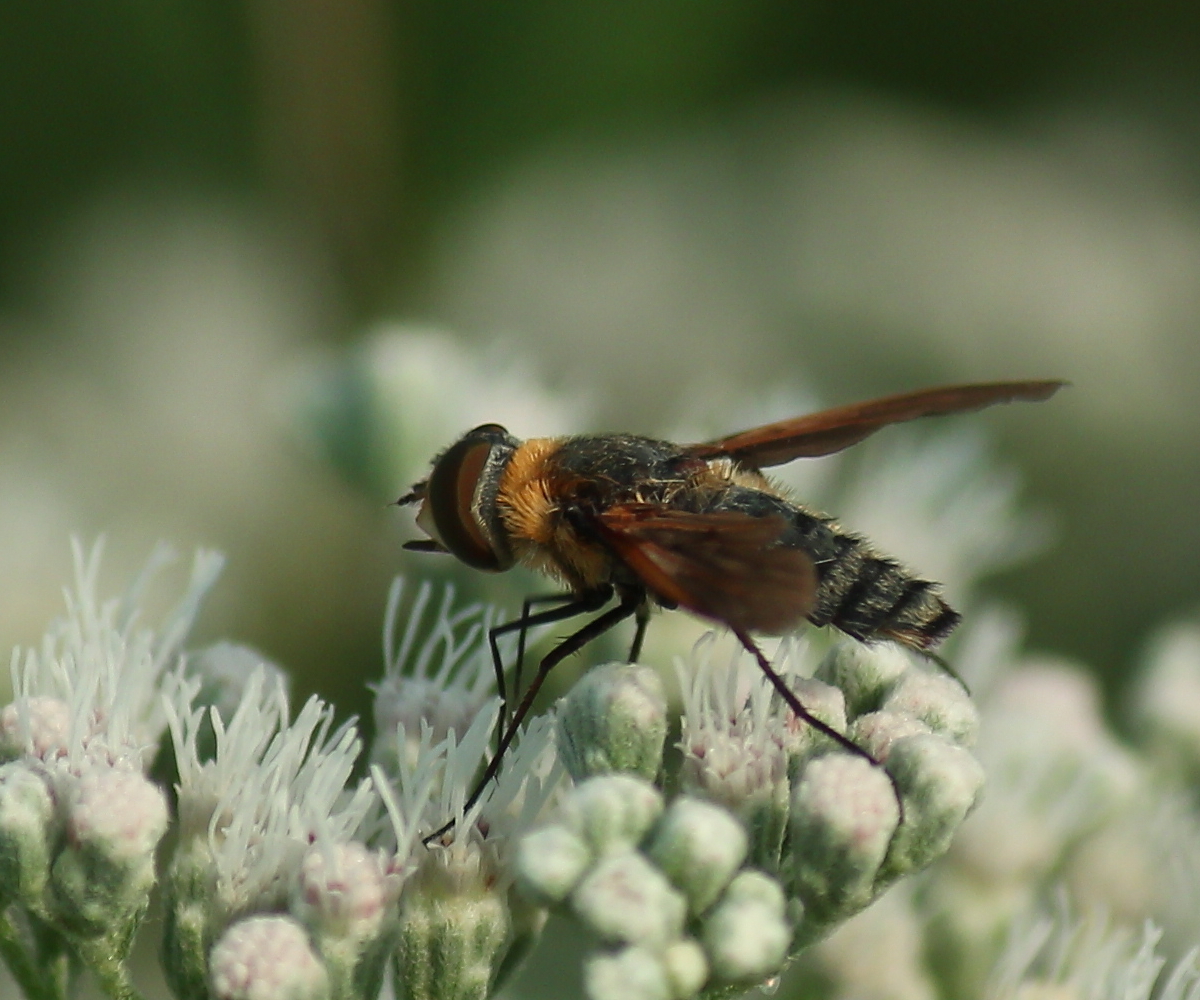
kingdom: Animalia
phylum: Arthropoda
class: Insecta
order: Diptera
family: Bombyliidae
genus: Poecilanthrax
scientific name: Poecilanthrax lucifer
